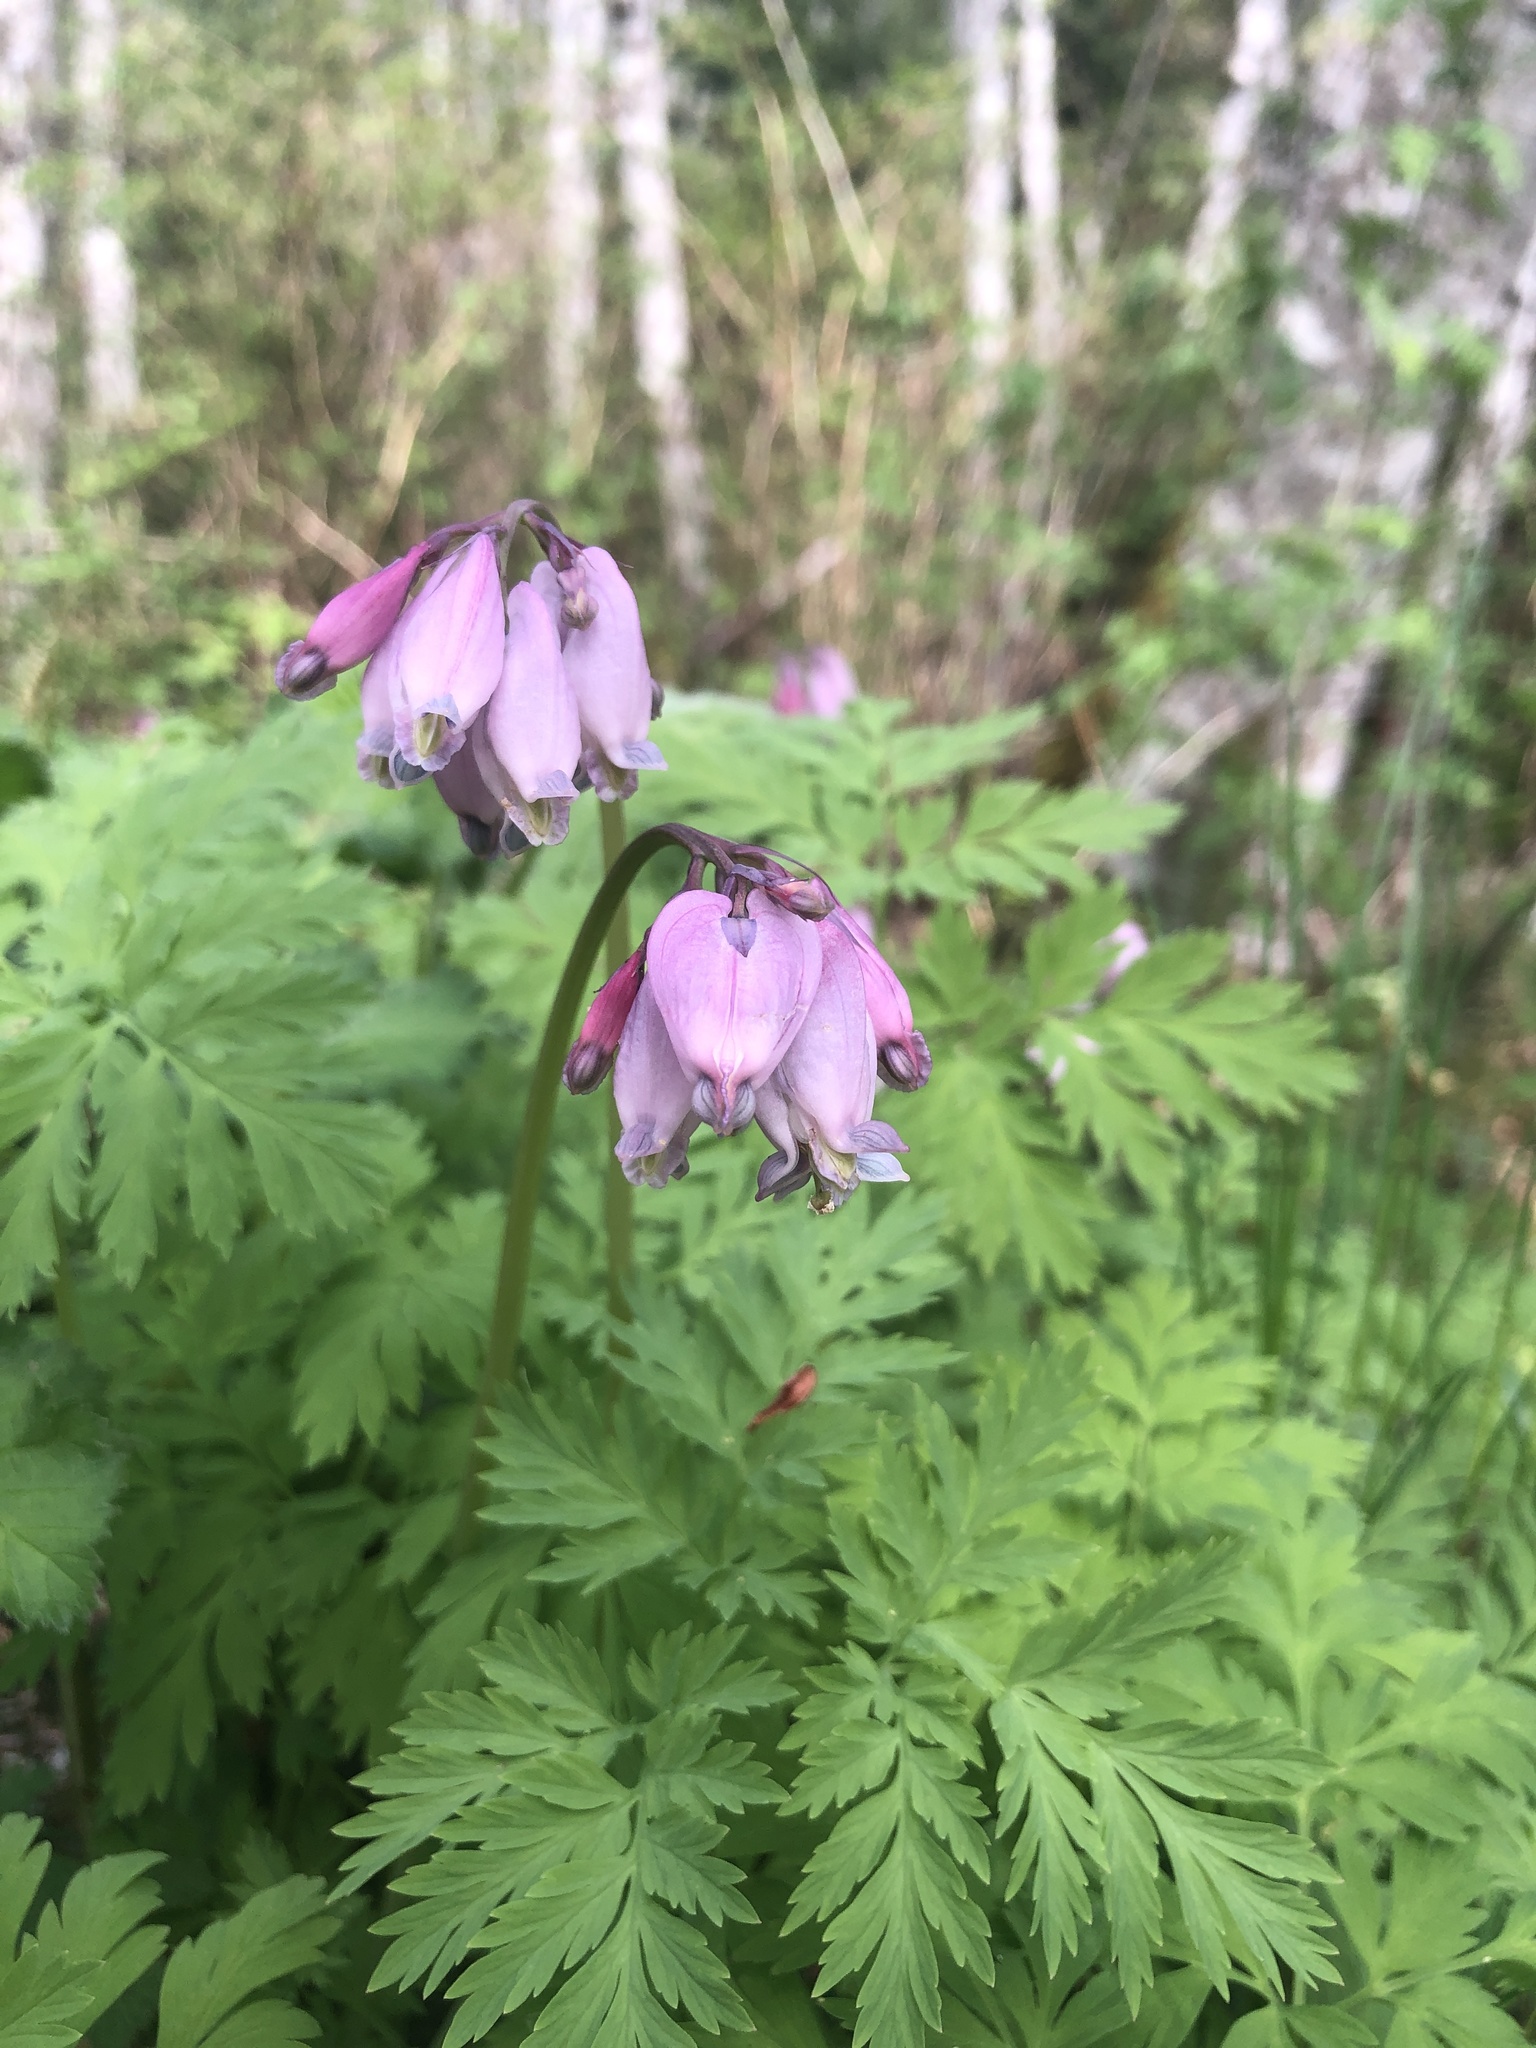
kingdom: Plantae
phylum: Tracheophyta
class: Magnoliopsida
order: Ranunculales
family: Papaveraceae
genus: Dicentra
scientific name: Dicentra formosa
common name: Bleeding-heart
